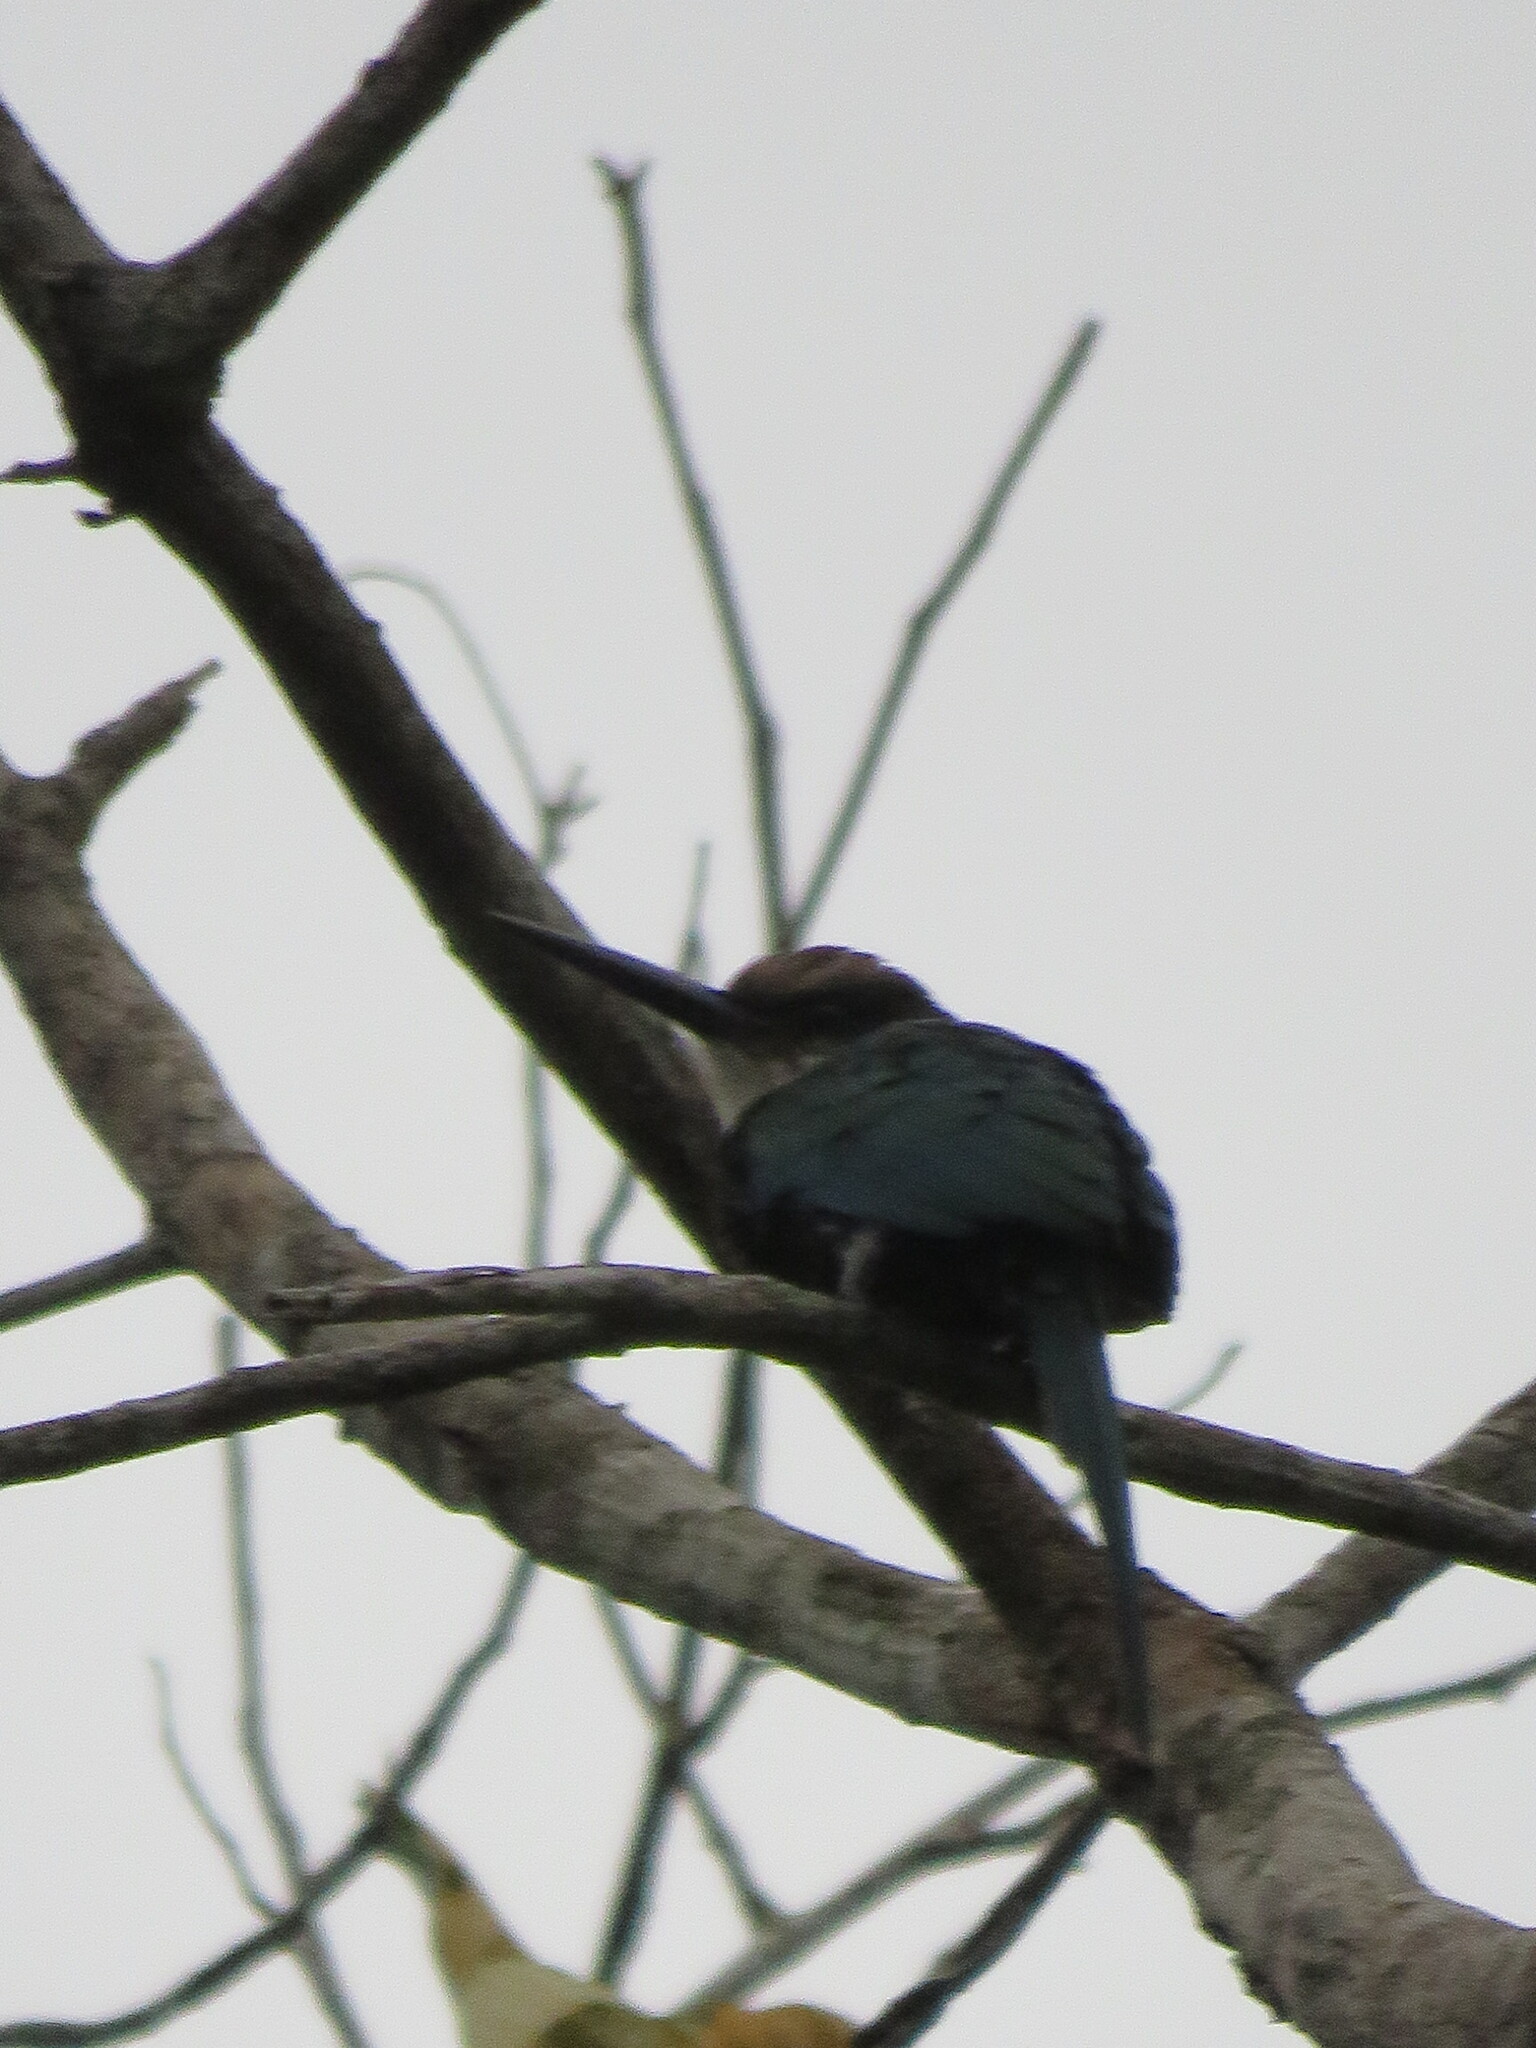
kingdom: Animalia
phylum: Chordata
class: Aves
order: Piciformes
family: Galbulidae
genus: Galbula
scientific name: Galbula dea
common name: Paradise jacamar
